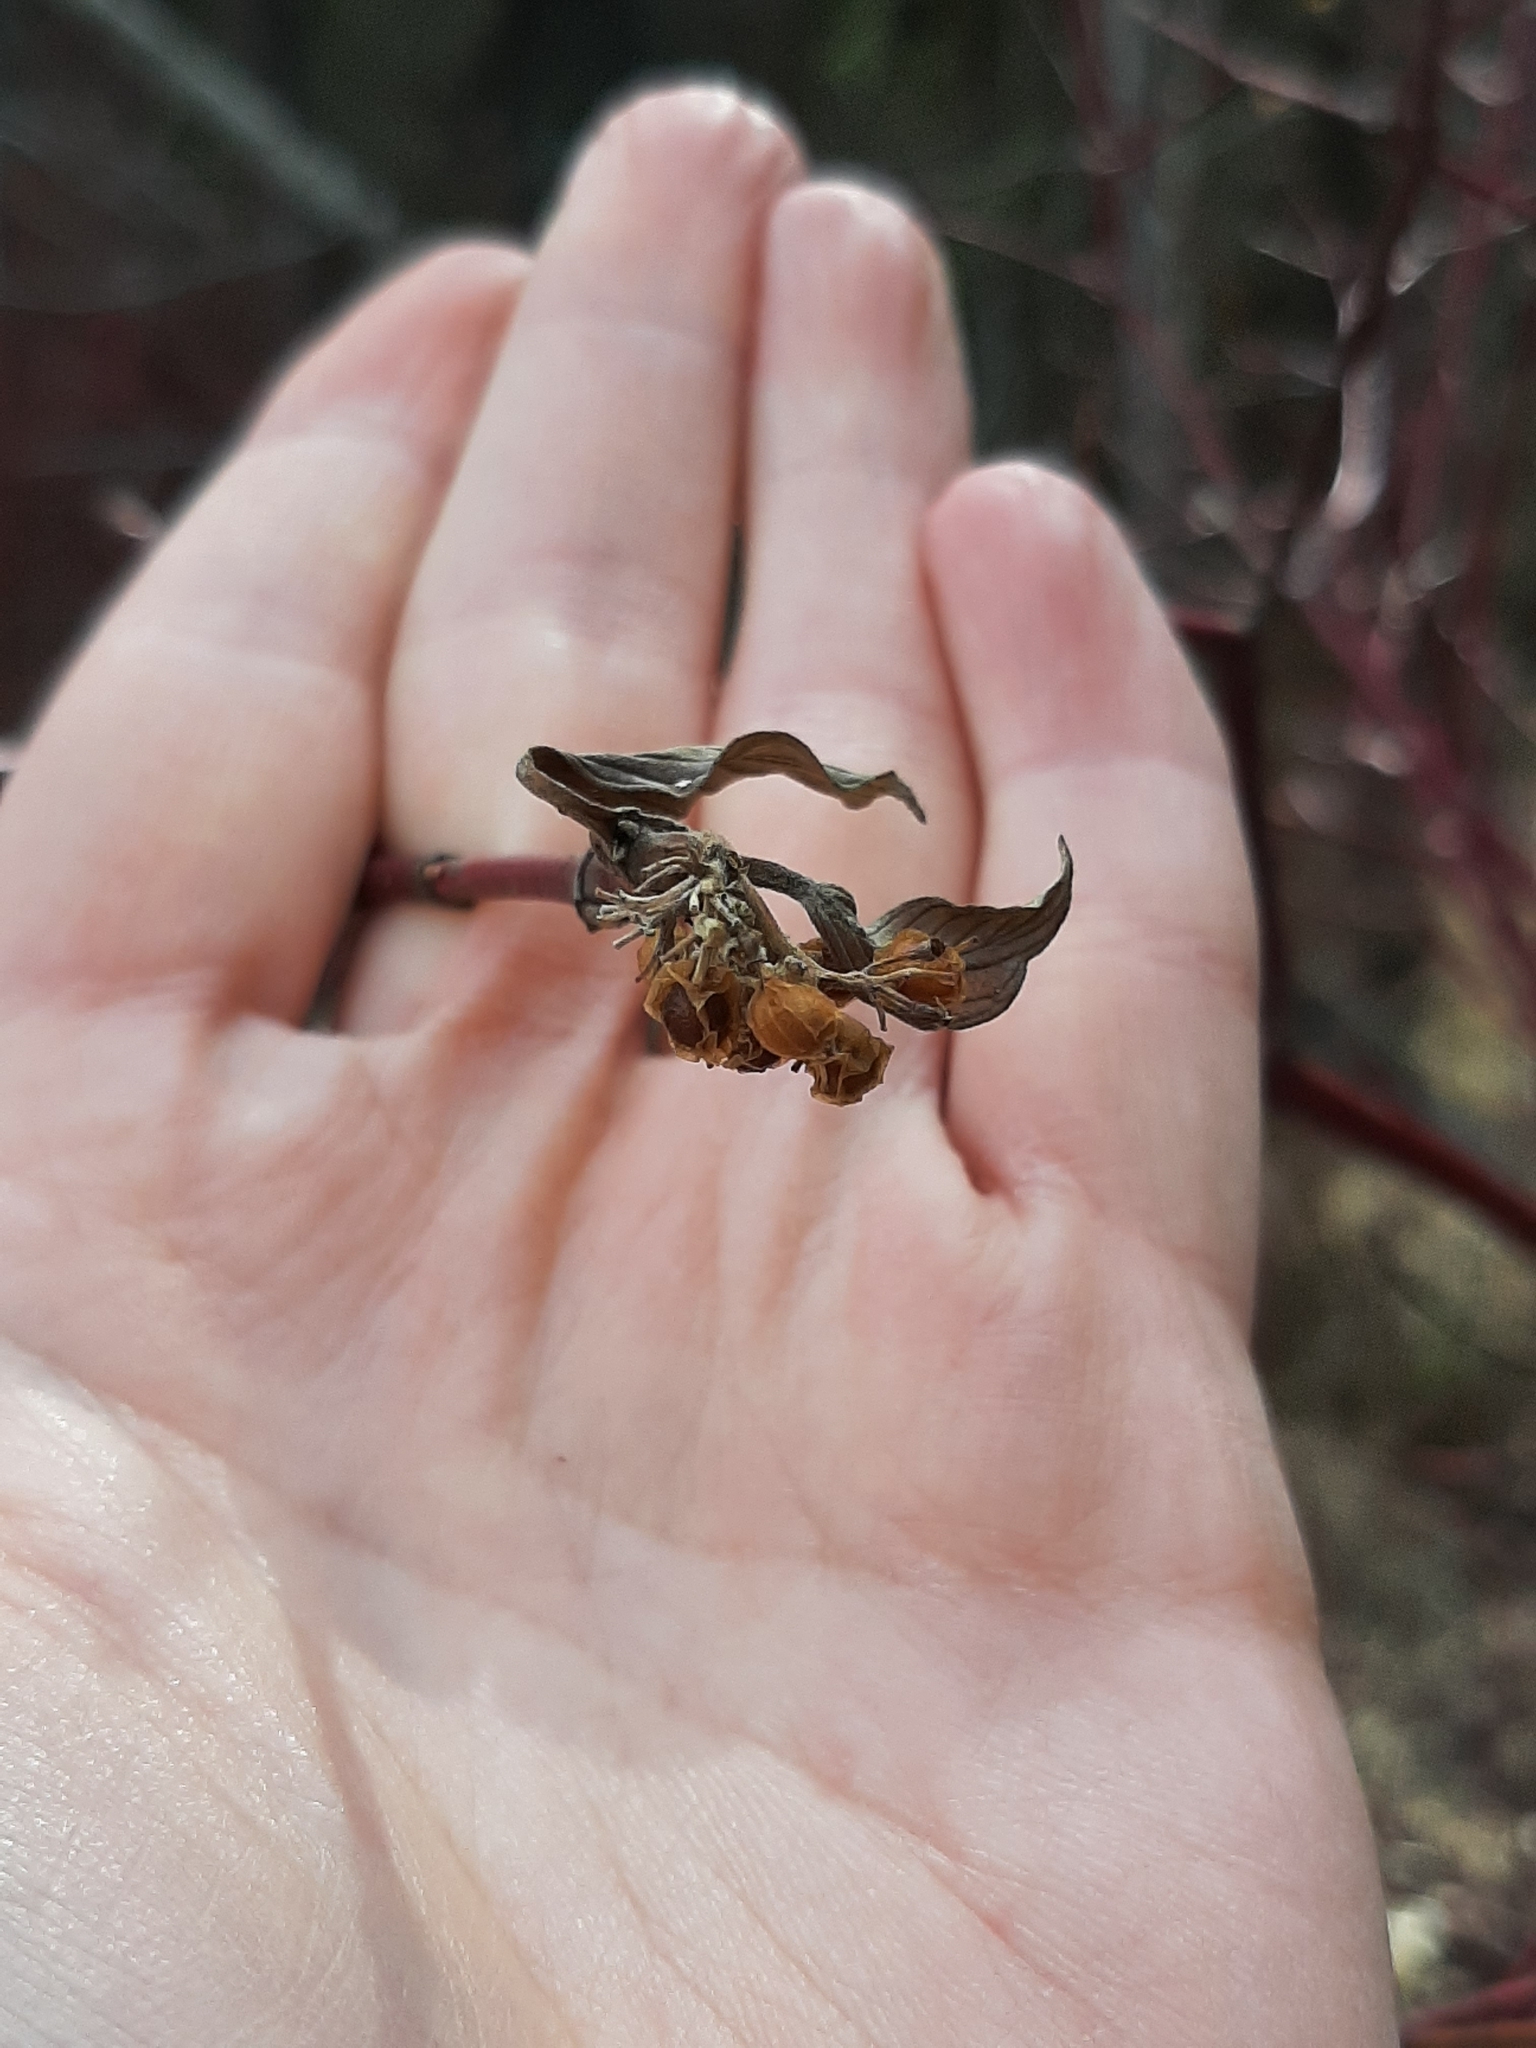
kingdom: Plantae
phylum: Tracheophyta
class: Magnoliopsida
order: Cornales
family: Cornaceae
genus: Cornus
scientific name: Cornus sericea
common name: Red-osier dogwood
